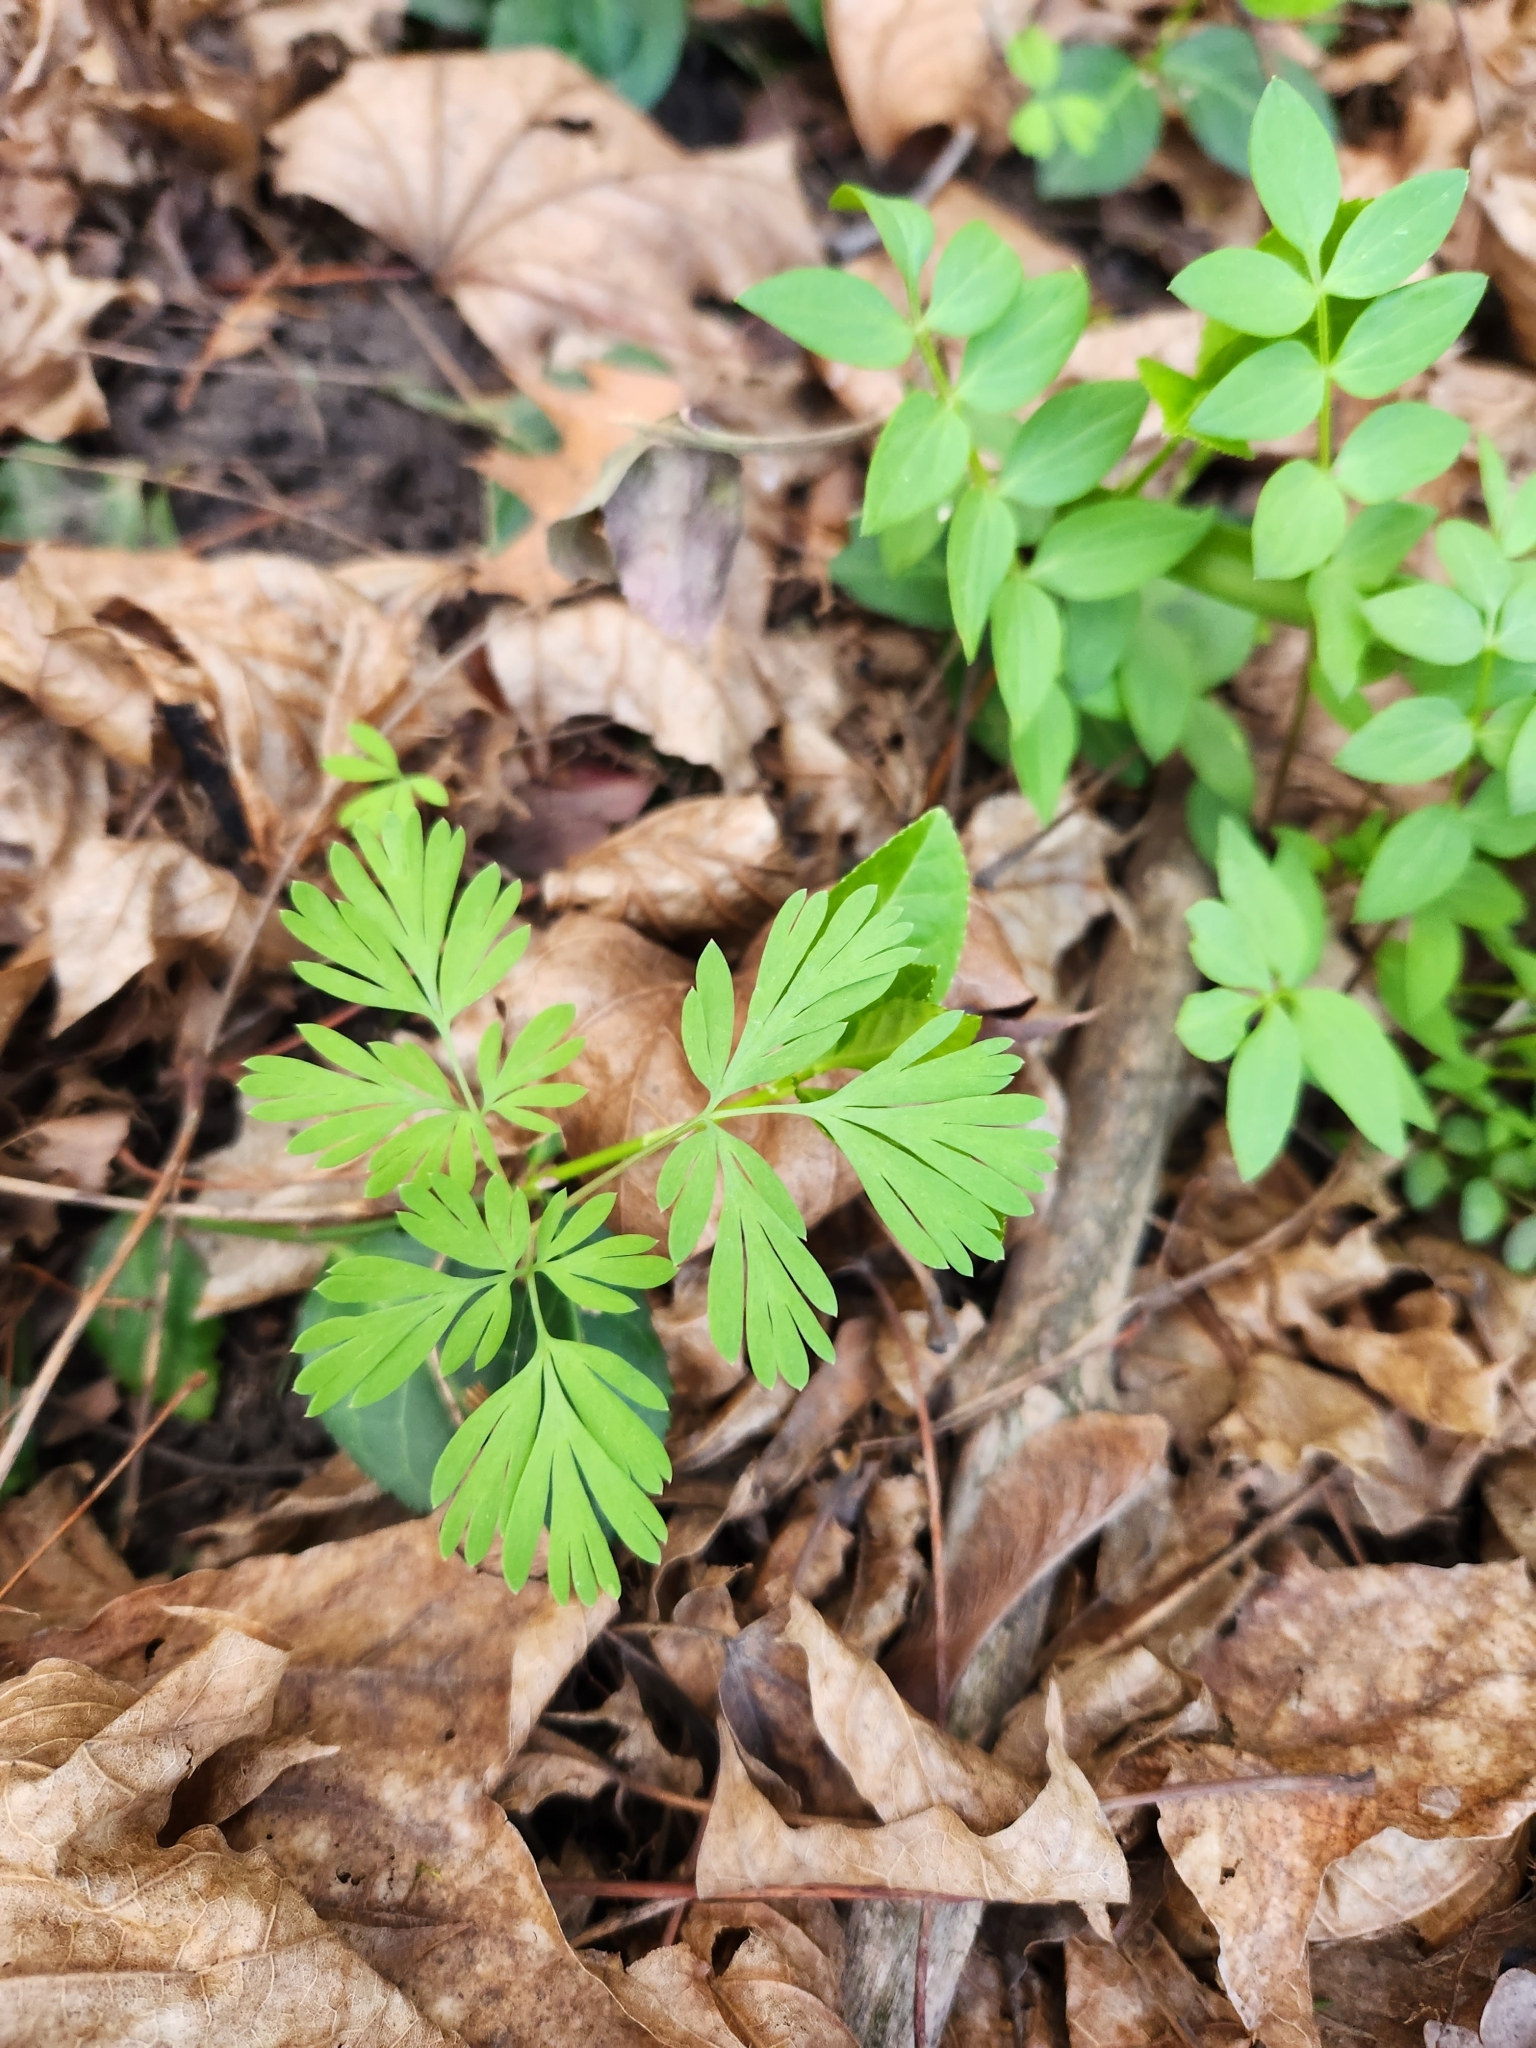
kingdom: Plantae
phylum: Tracheophyta
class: Magnoliopsida
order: Ranunculales
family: Papaveraceae
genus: Dicentra
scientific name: Dicentra cucullaria
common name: Dutchman's breeches
